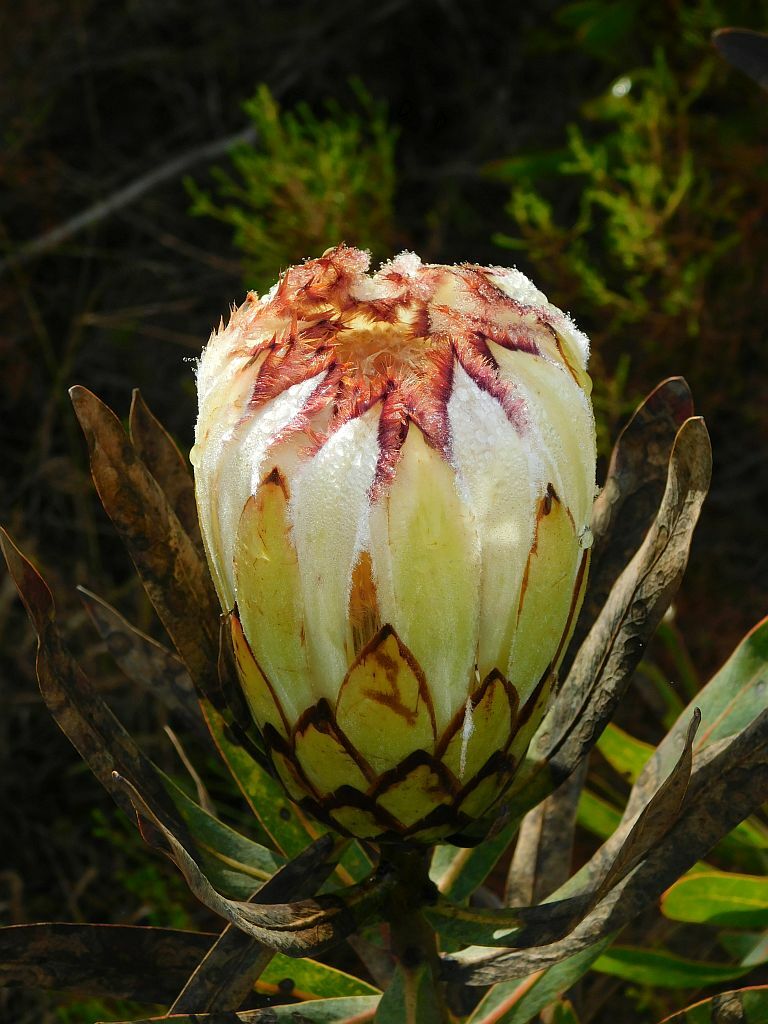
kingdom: Plantae
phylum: Tracheophyta
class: Magnoliopsida
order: Proteales
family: Proteaceae
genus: Protea
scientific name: Protea neriifolia
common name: Blue sugarbush
